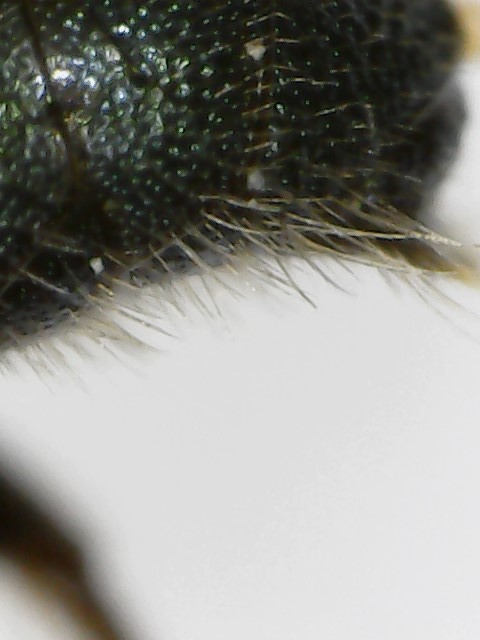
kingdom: Animalia
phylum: Arthropoda
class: Insecta
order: Hymenoptera
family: Apidae
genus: Ceratina
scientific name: Ceratina calcarata
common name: Spurred carpenter bee
